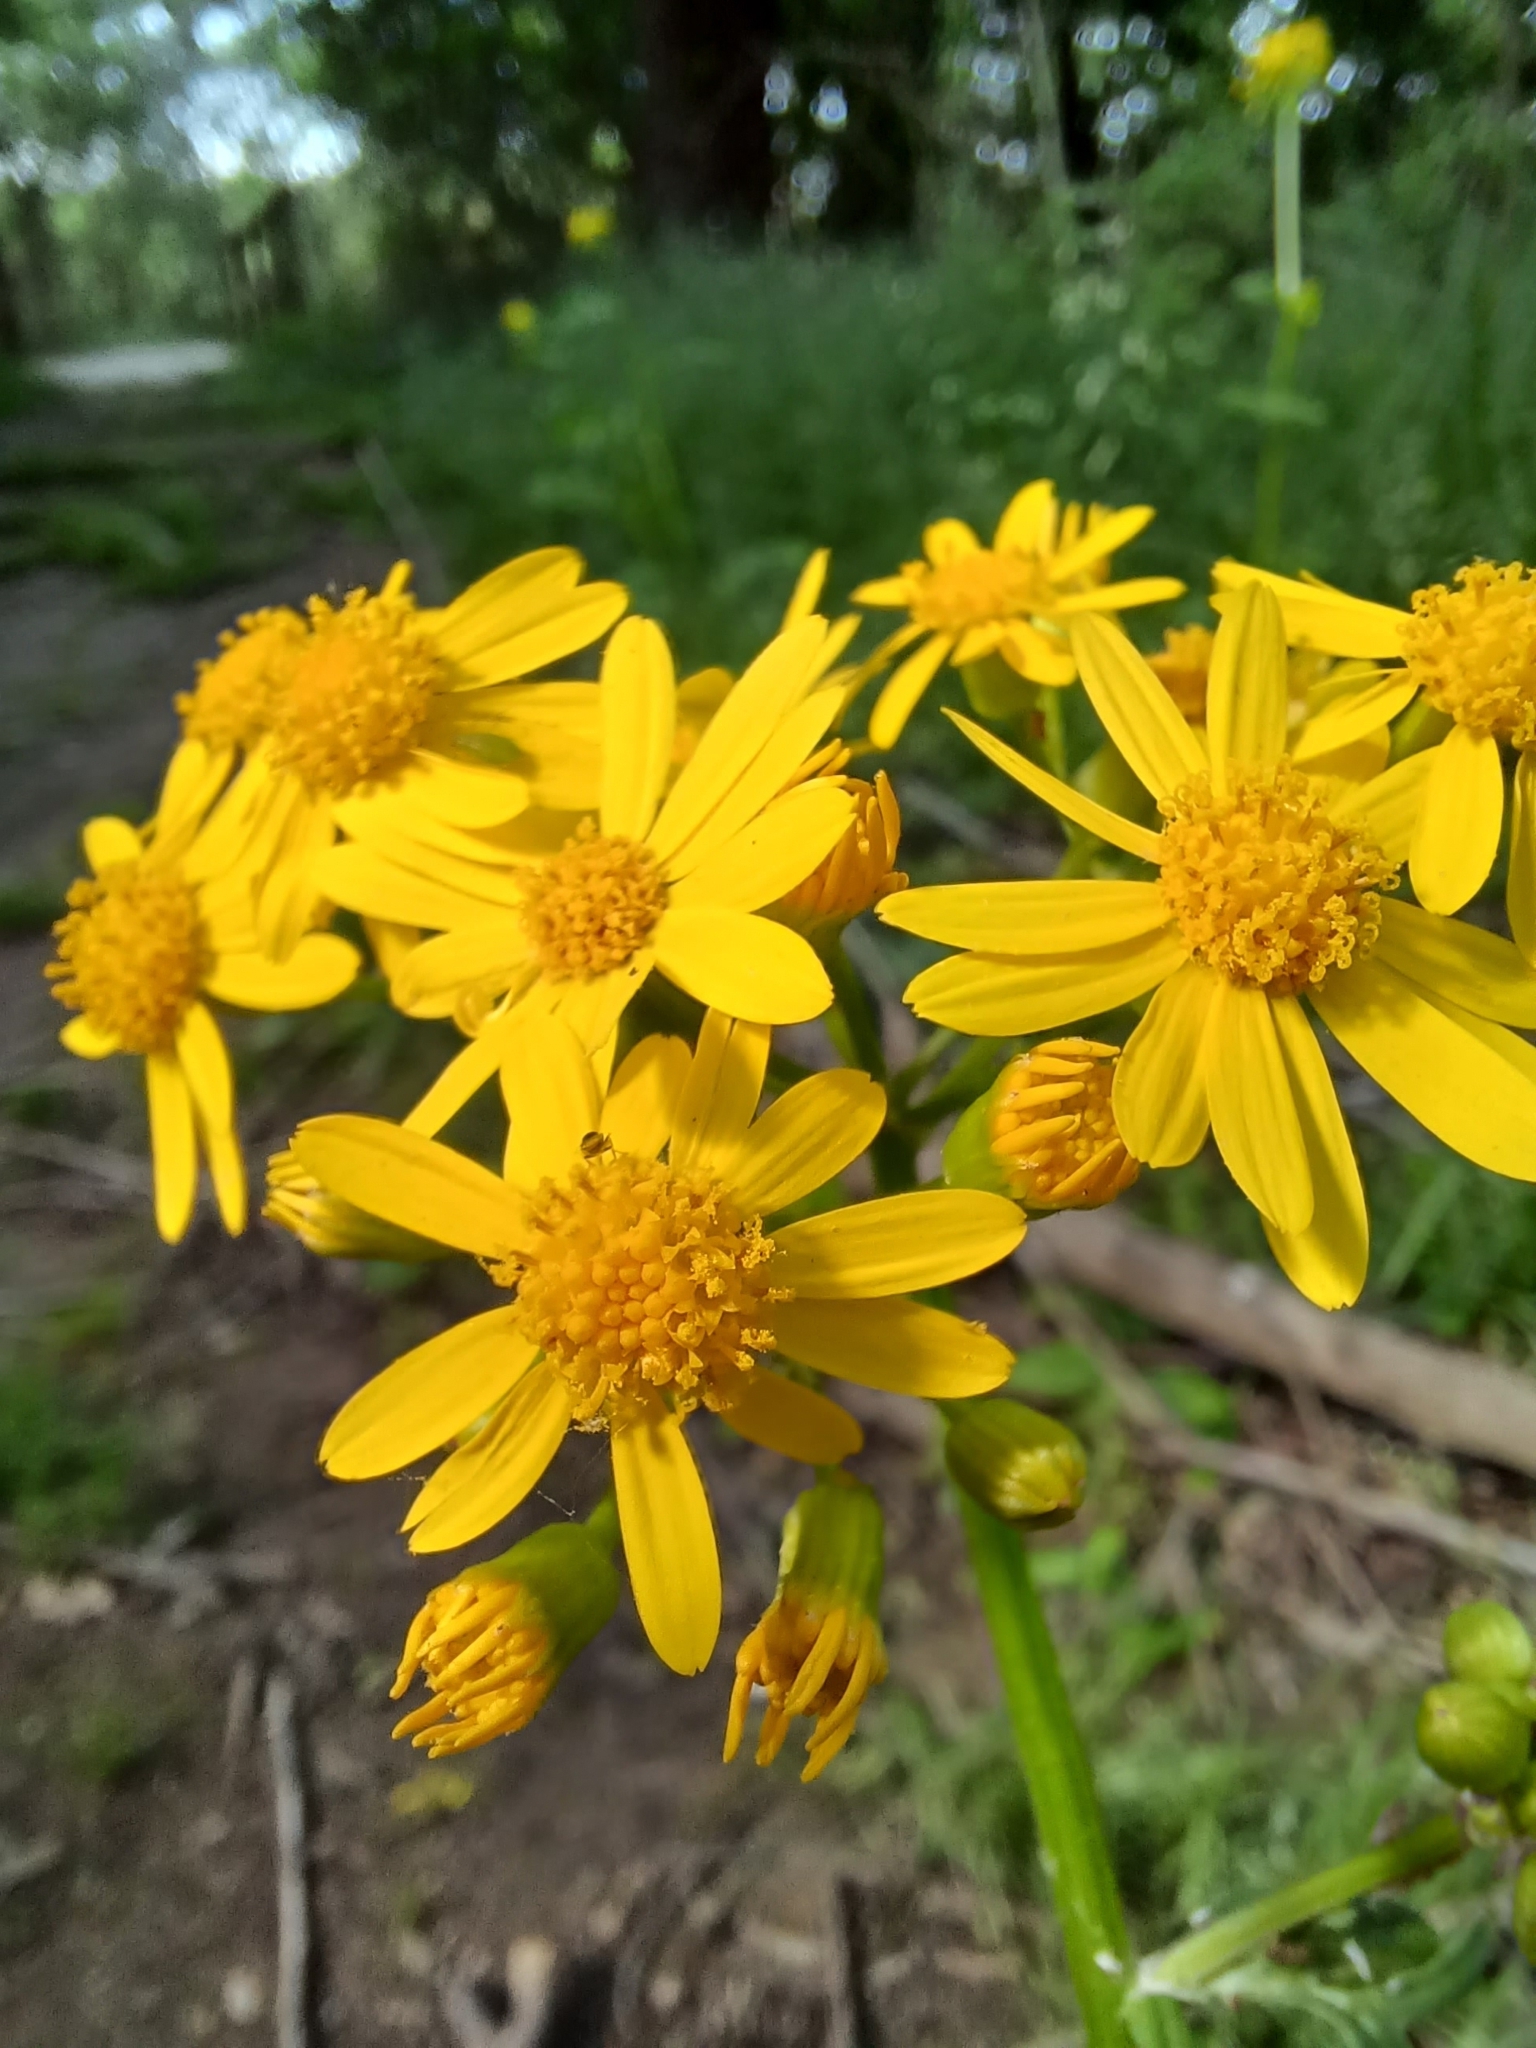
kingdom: Plantae
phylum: Tracheophyta
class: Magnoliopsida
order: Asterales
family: Asteraceae
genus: Packera
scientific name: Packera glabella
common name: Butterweed
